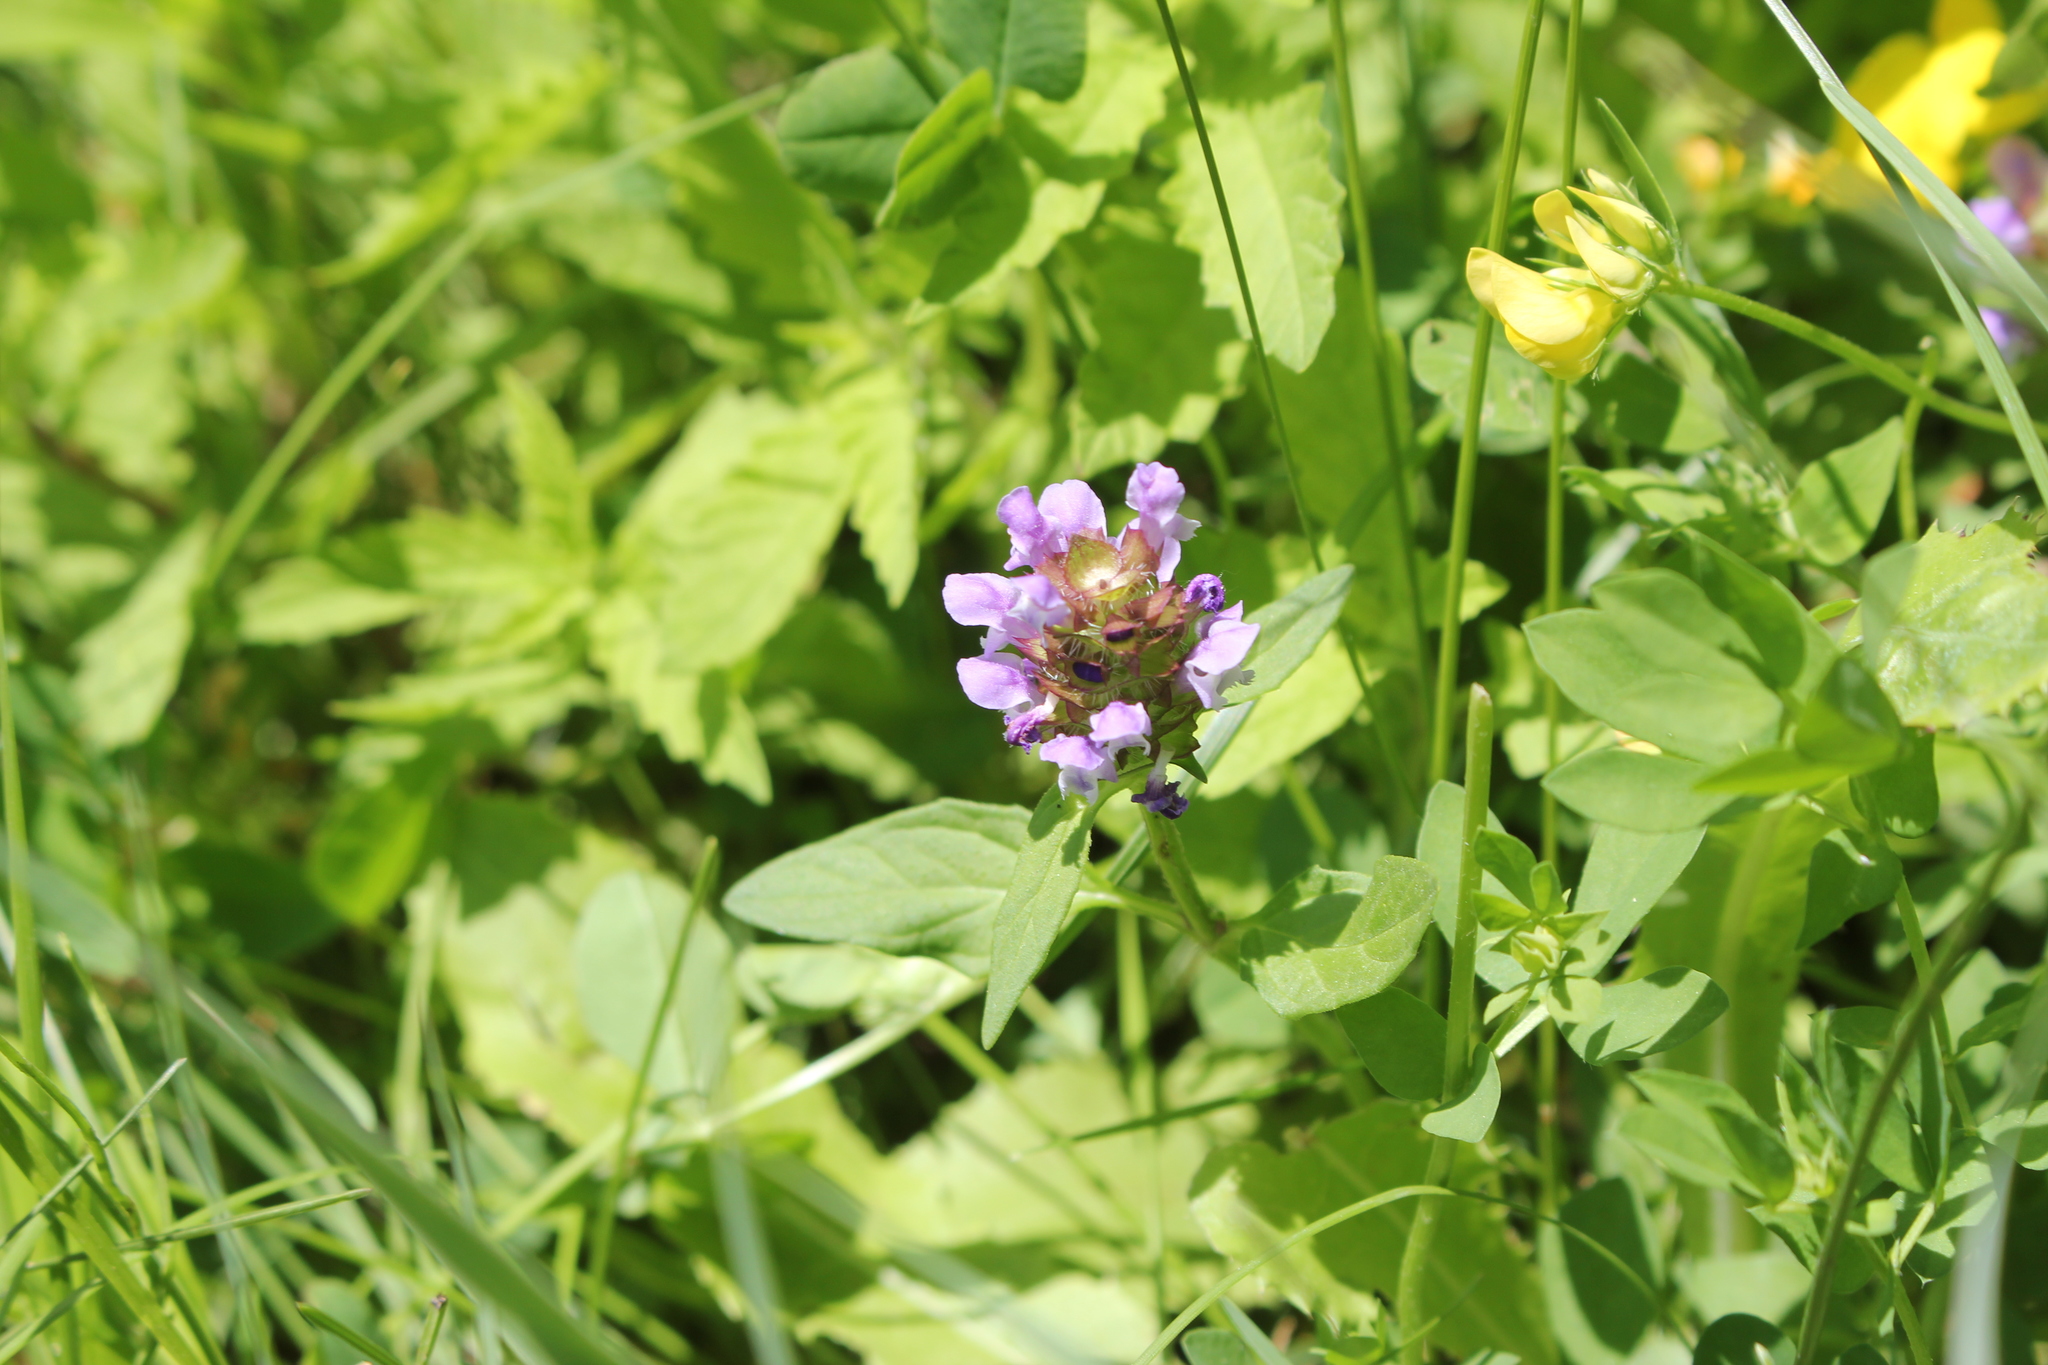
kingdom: Plantae
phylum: Tracheophyta
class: Magnoliopsida
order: Lamiales
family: Lamiaceae
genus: Prunella
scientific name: Prunella vulgaris
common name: Heal-all
